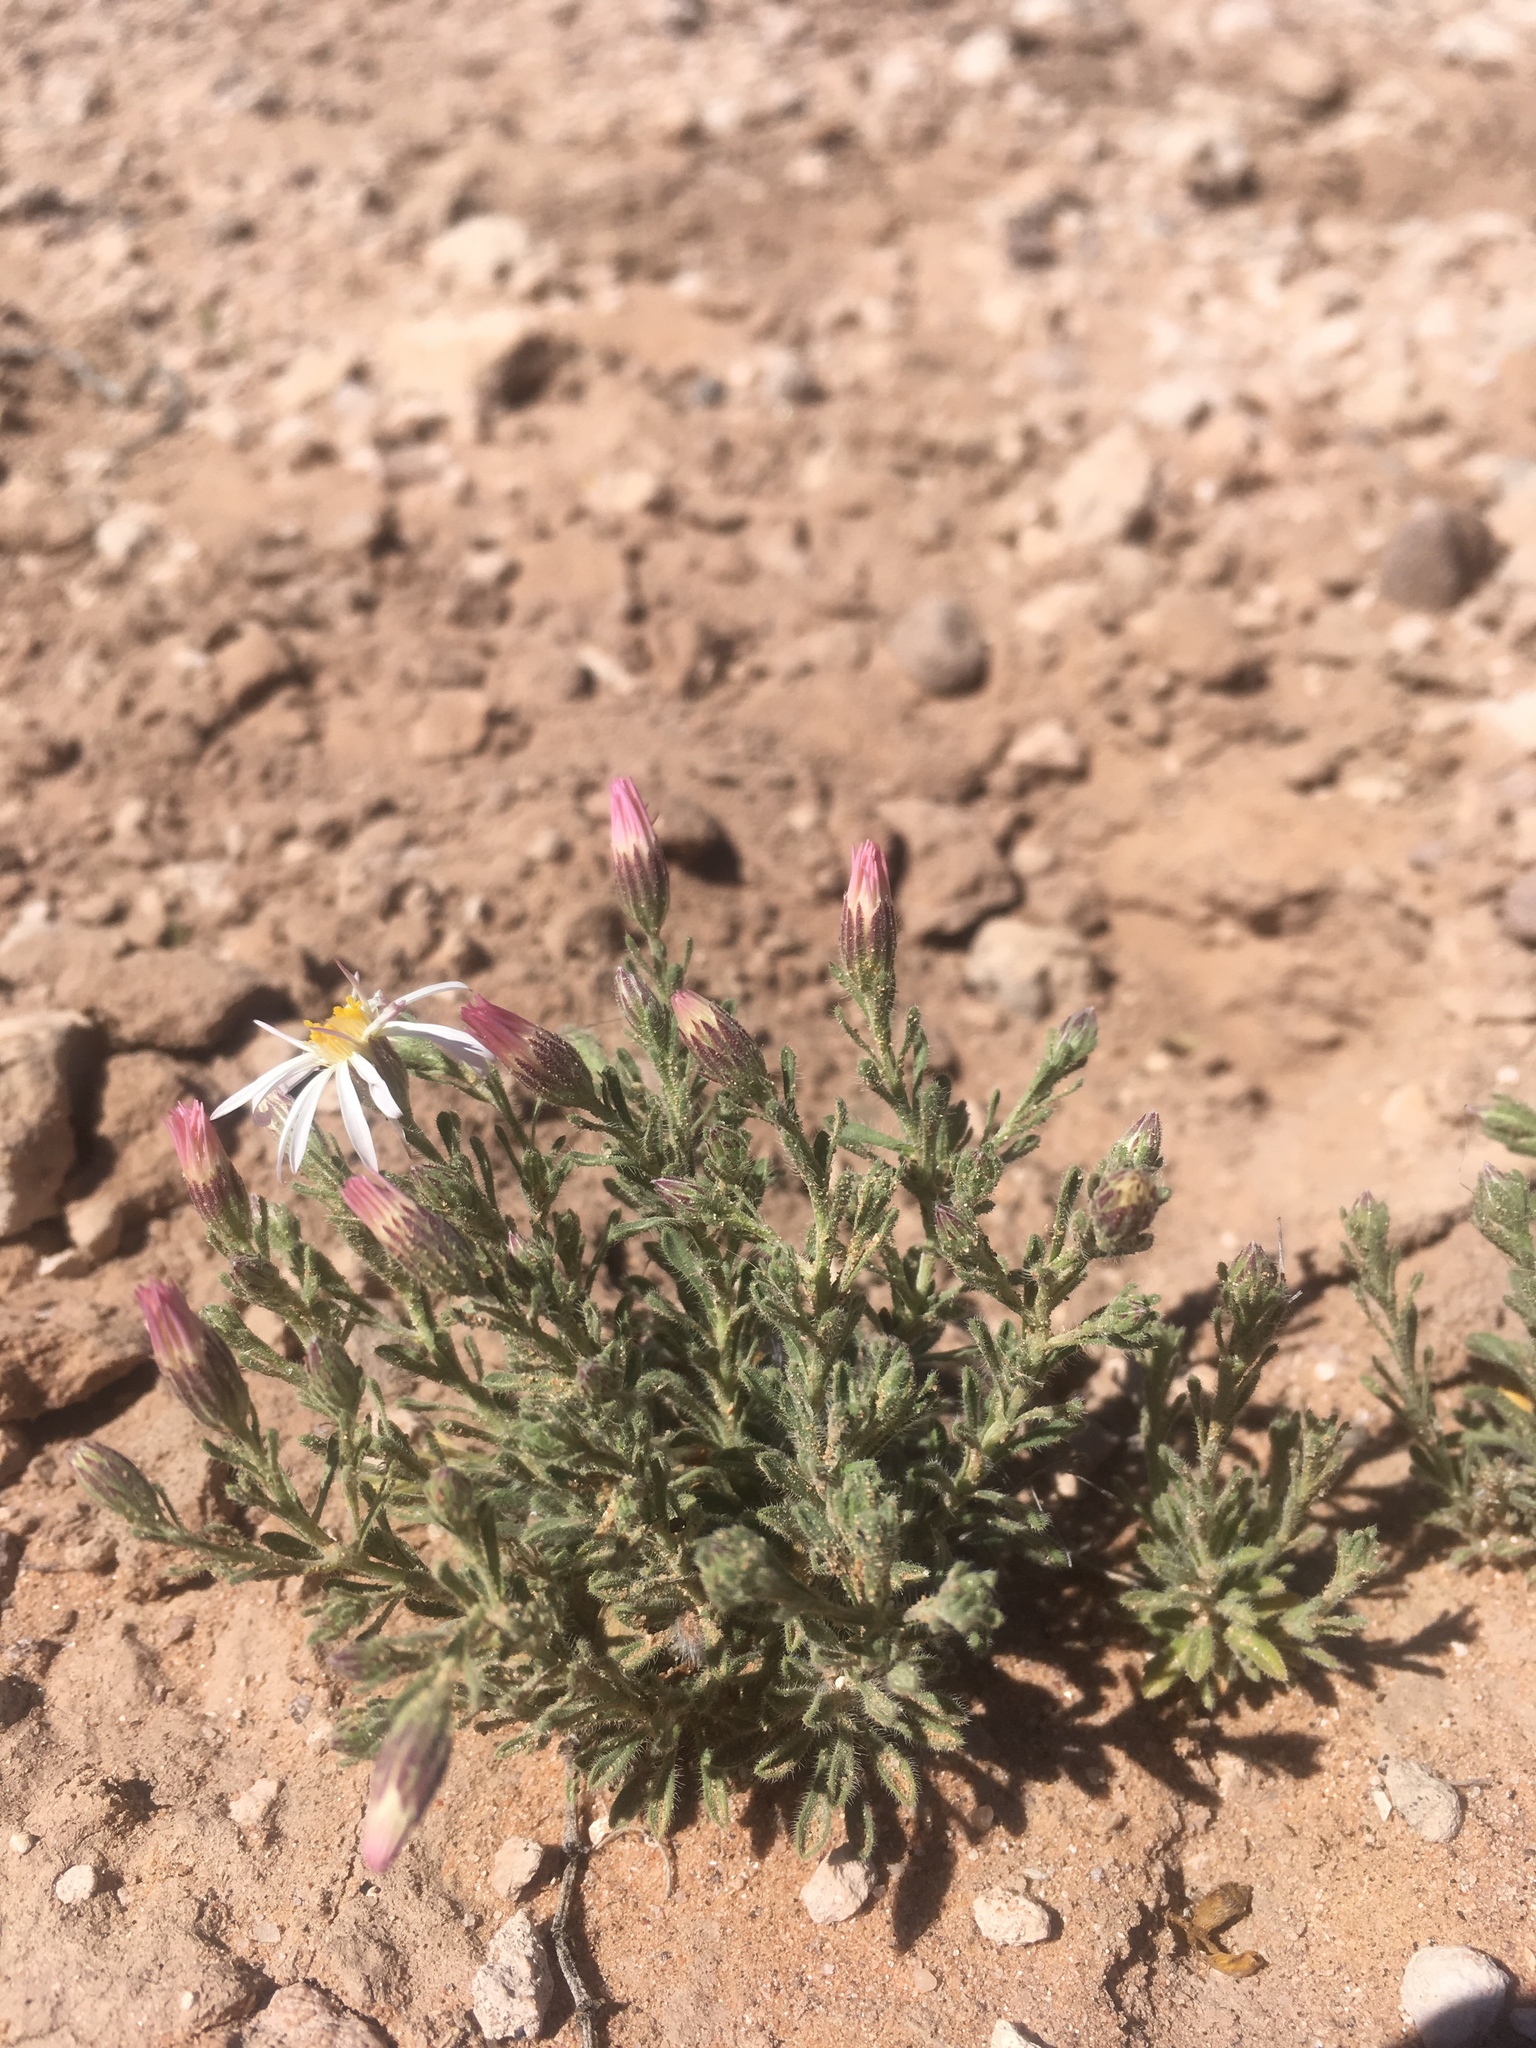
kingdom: Plantae
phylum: Tracheophyta
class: Magnoliopsida
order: Asterales
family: Asteraceae
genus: Chaetopappa
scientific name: Chaetopappa ericoides
